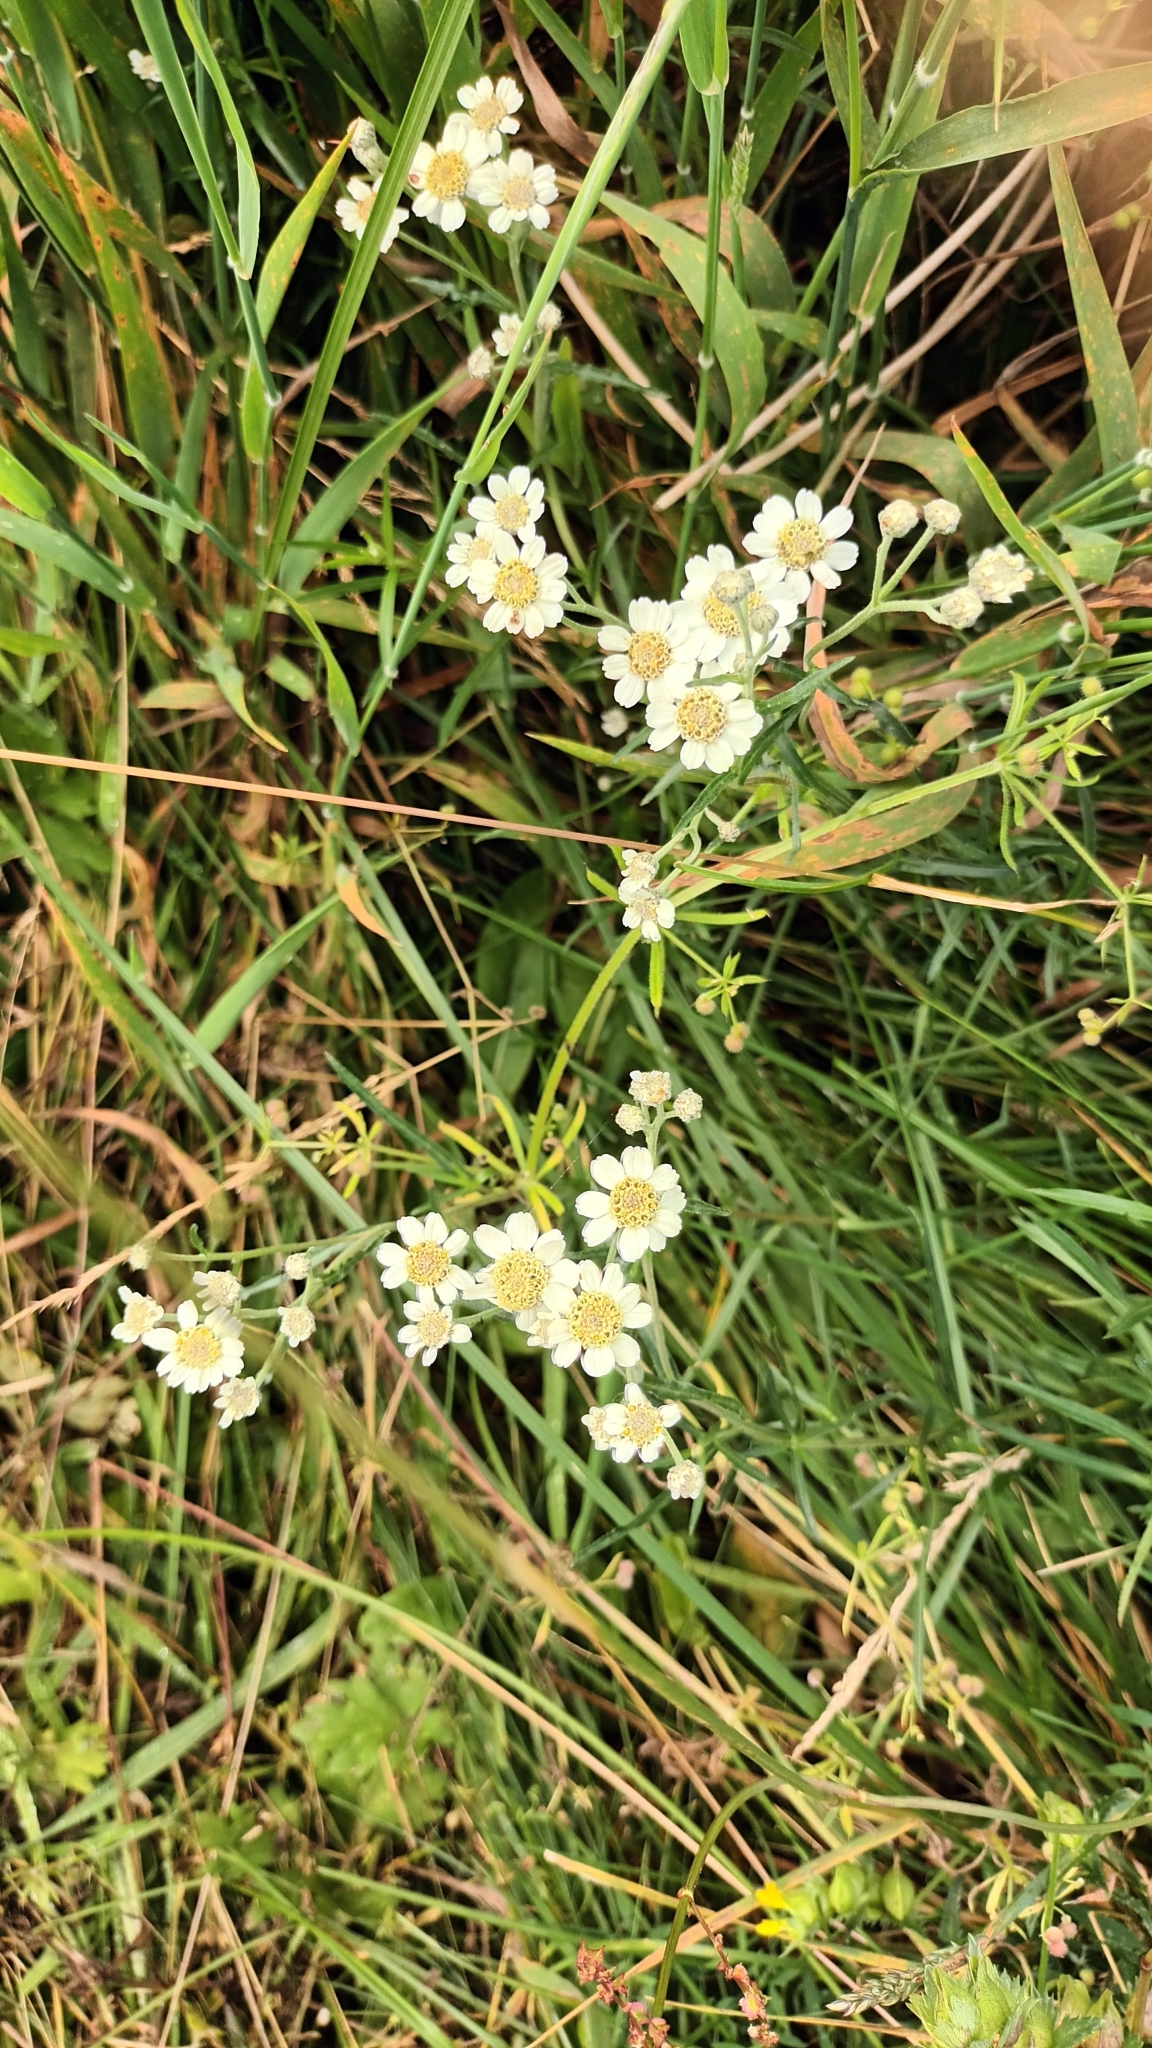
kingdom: Plantae
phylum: Tracheophyta
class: Magnoliopsida
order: Asterales
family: Asteraceae
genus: Achillea
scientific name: Achillea ptarmica
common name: Sneezeweed
